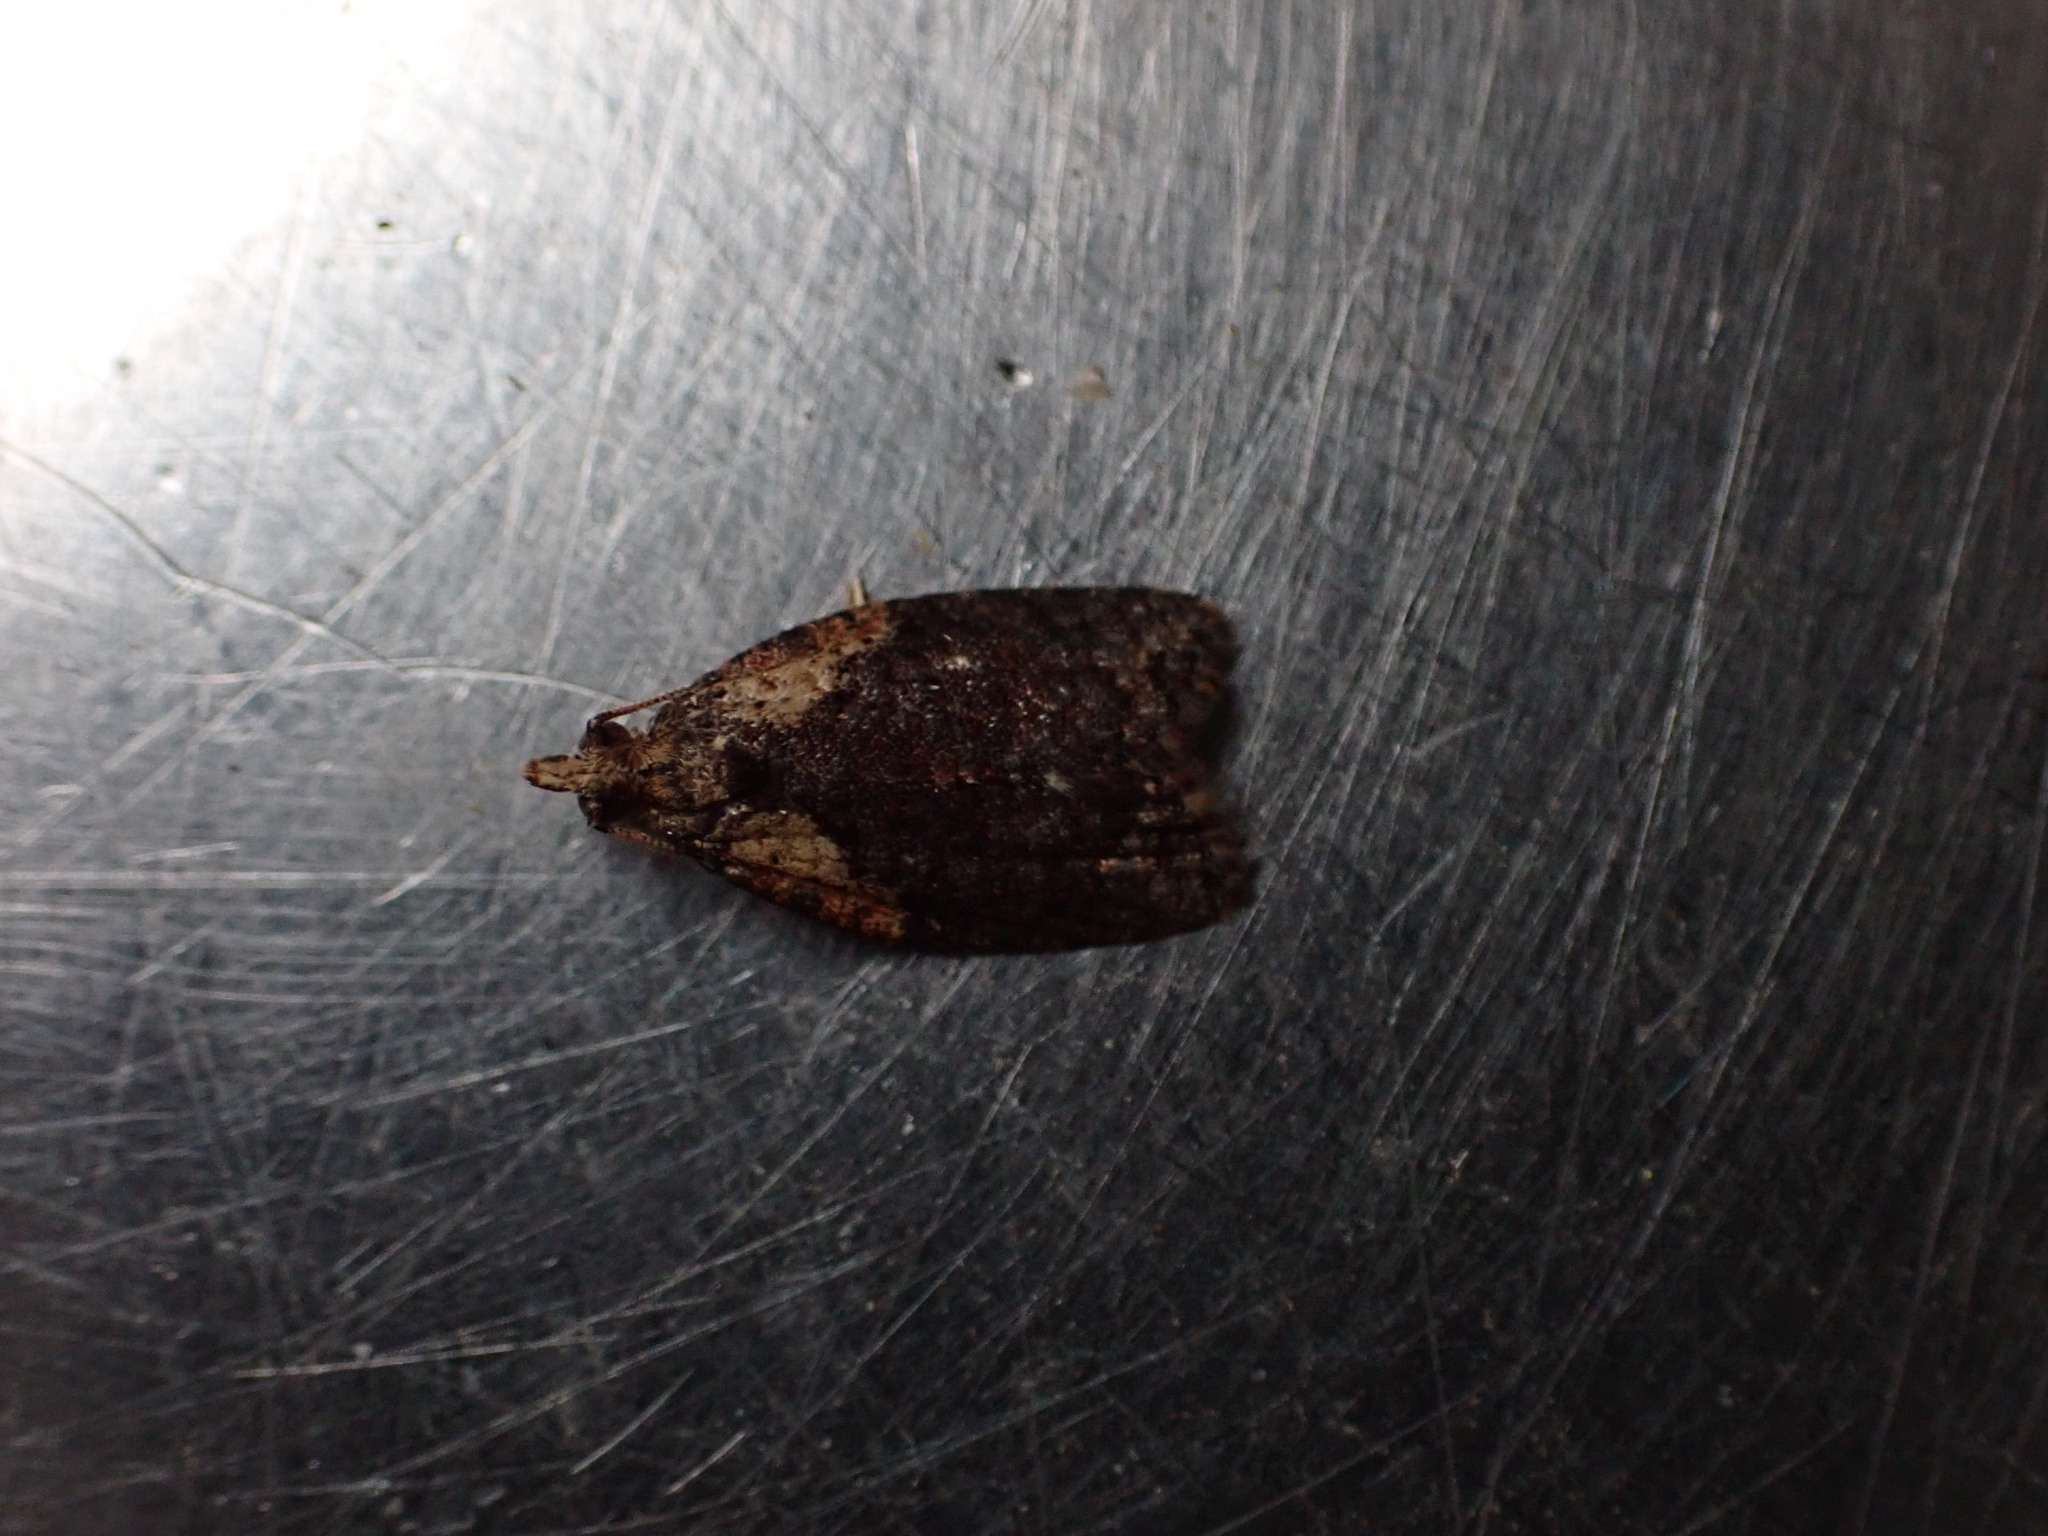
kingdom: Animalia
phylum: Arthropoda
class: Insecta
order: Lepidoptera
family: Tortricidae
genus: Capua
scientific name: Capua intractana
